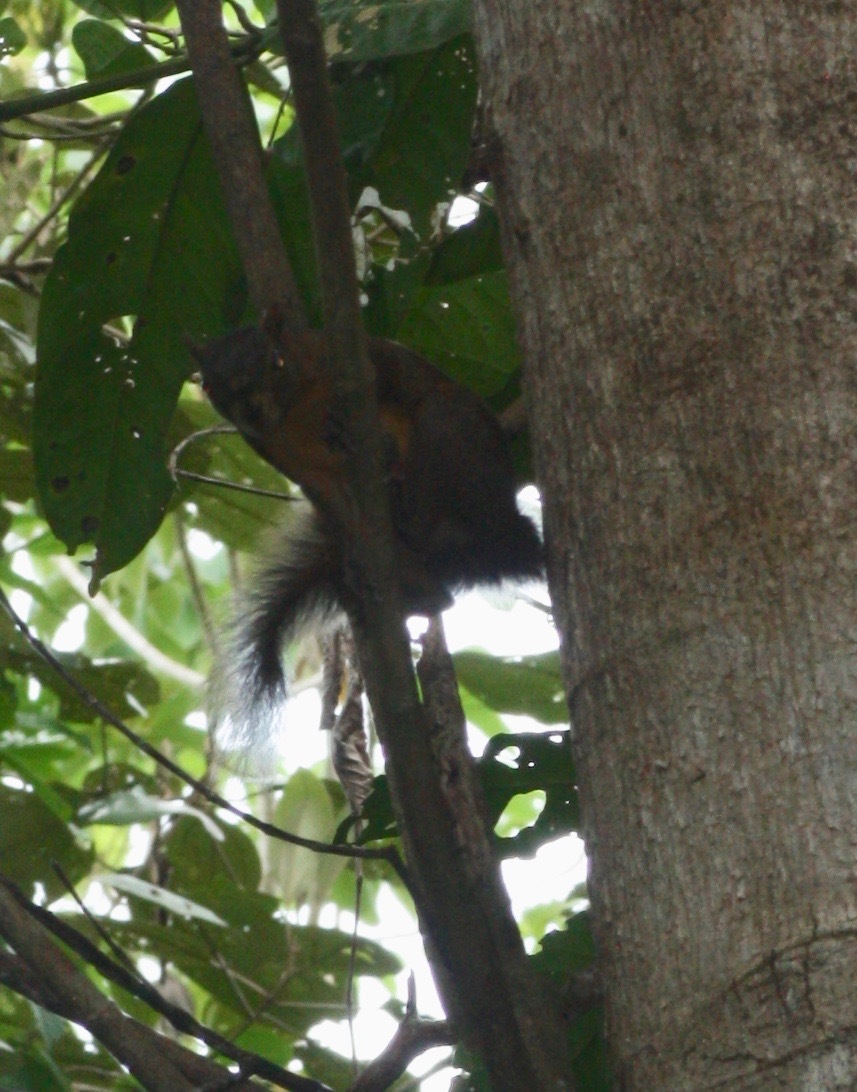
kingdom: Animalia
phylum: Chordata
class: Mammalia
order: Rodentia
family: Sciuridae
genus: Sciurus
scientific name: Sciurus granatensis
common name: Red-tailed squirrel
